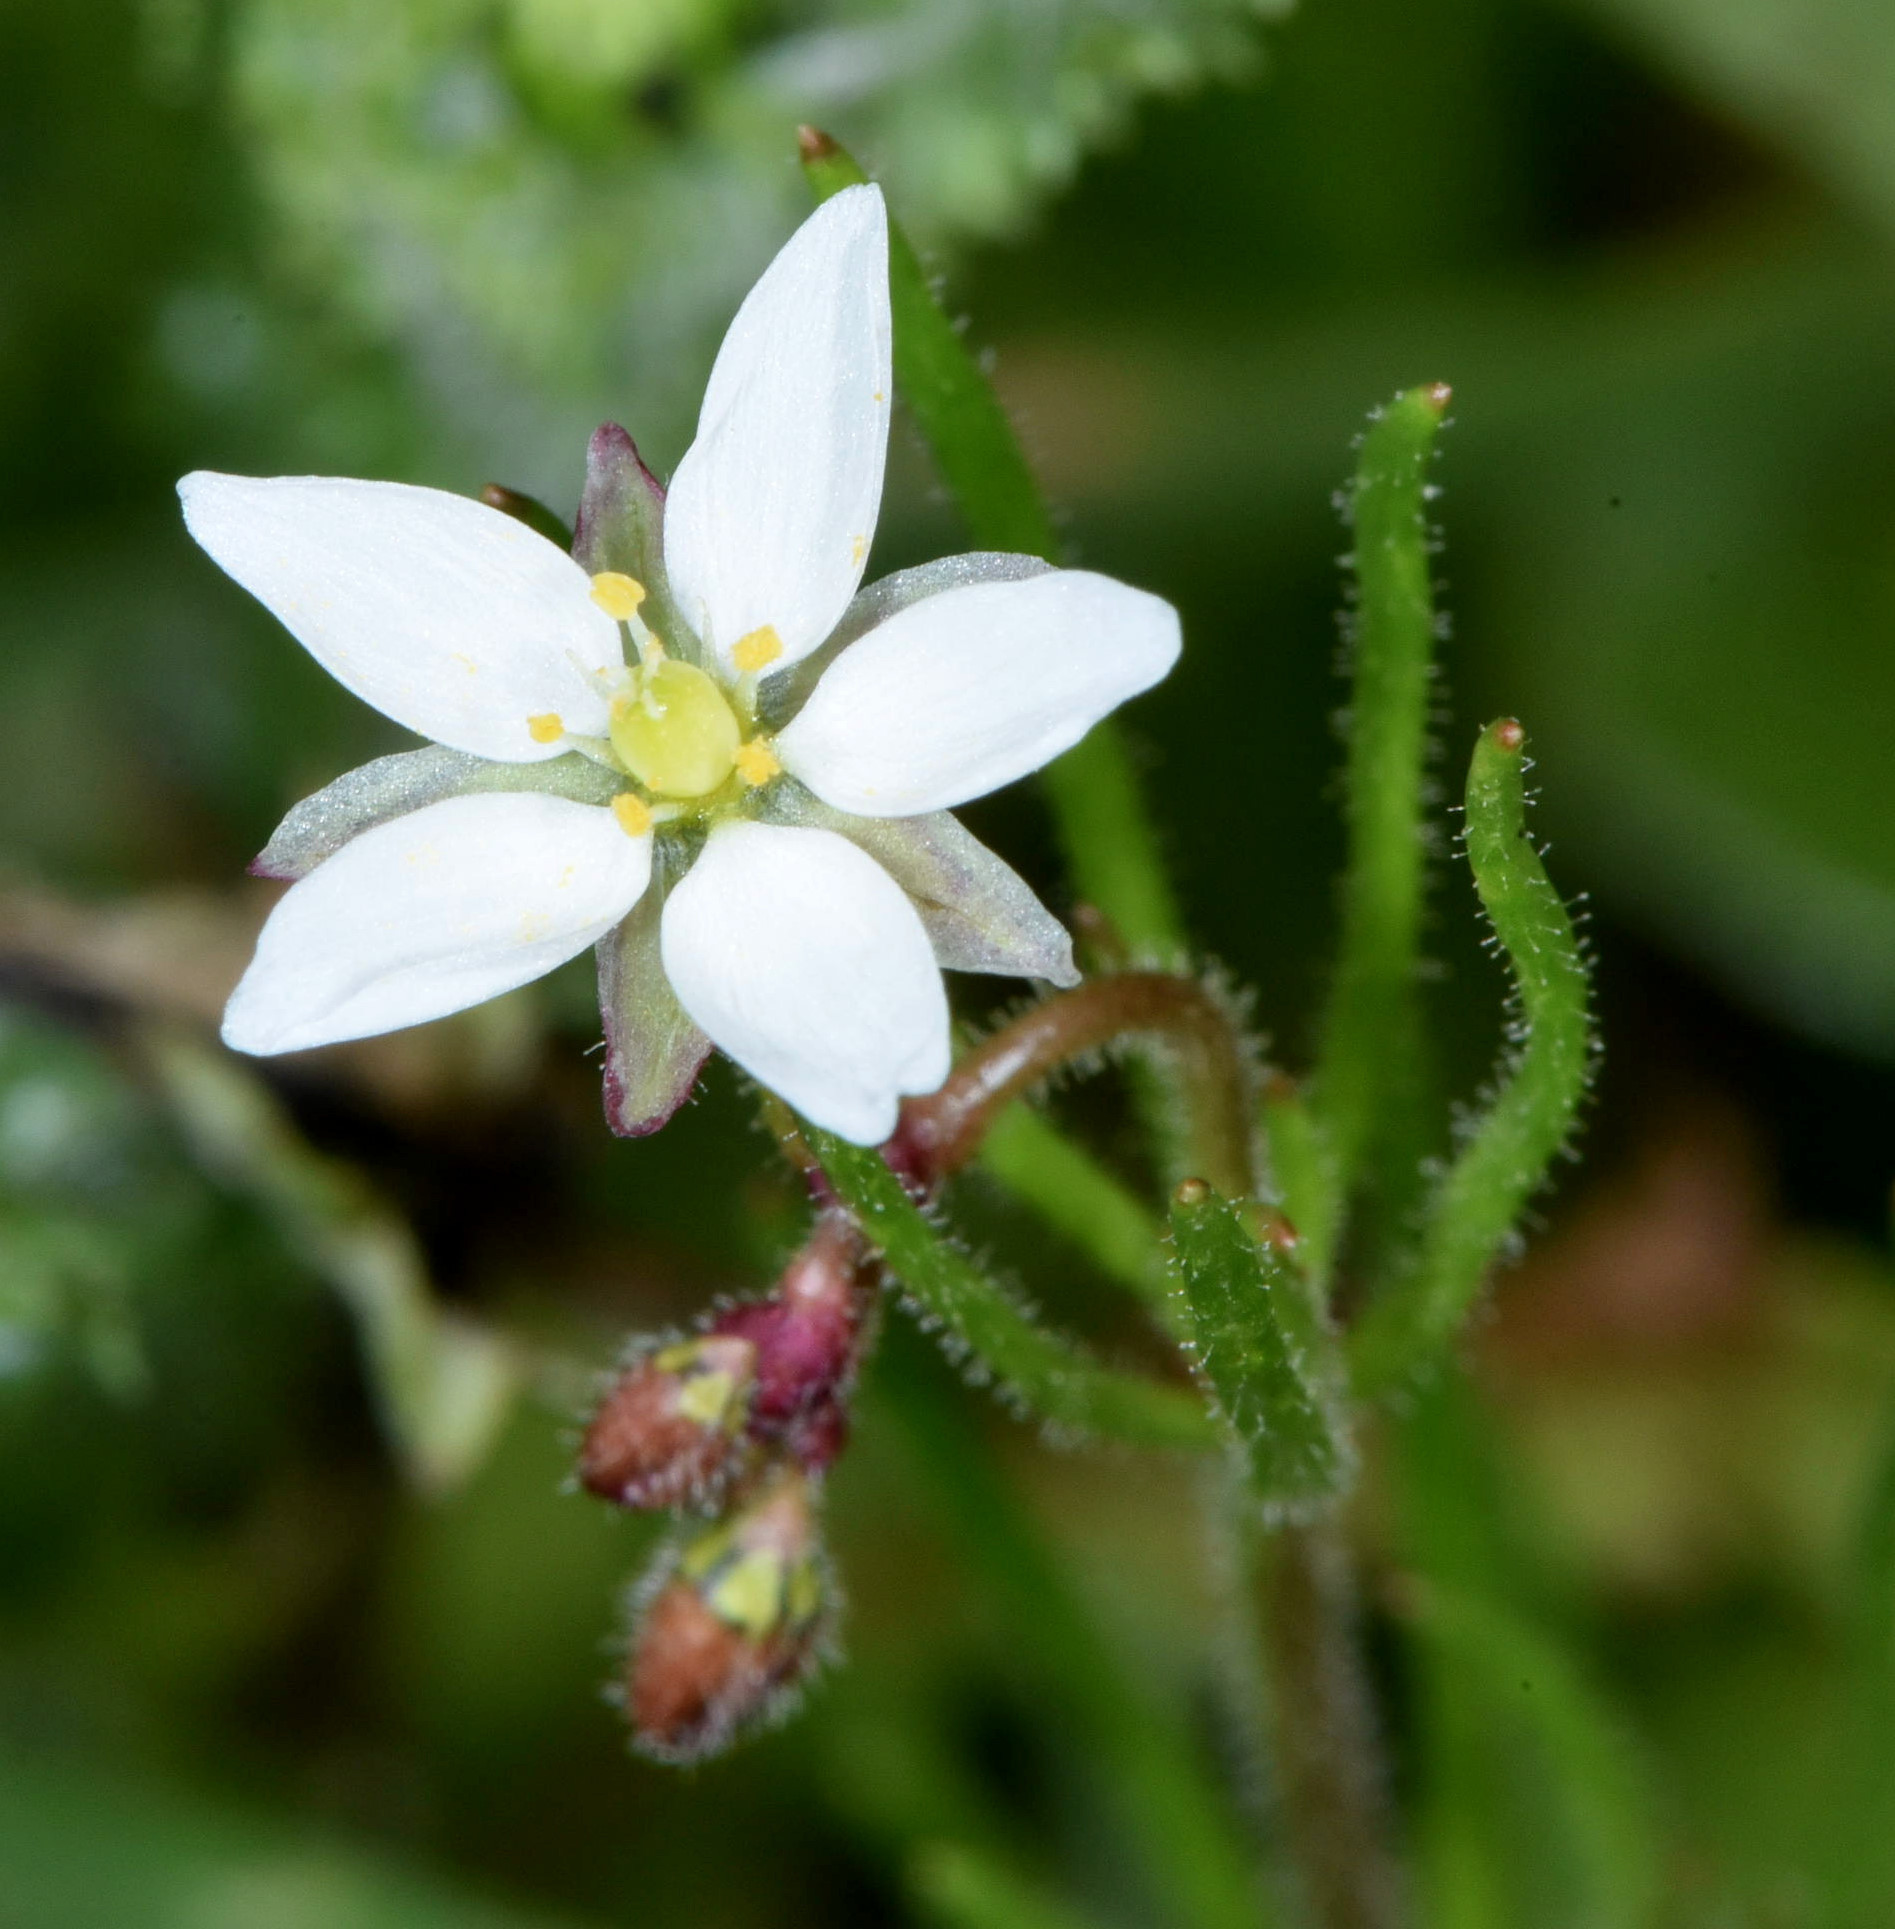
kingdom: Plantae
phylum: Tracheophyta
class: Magnoliopsida
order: Caryophyllales
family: Caryophyllaceae
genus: Spergula
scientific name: Spergula arvensis
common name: Corn spurrey
